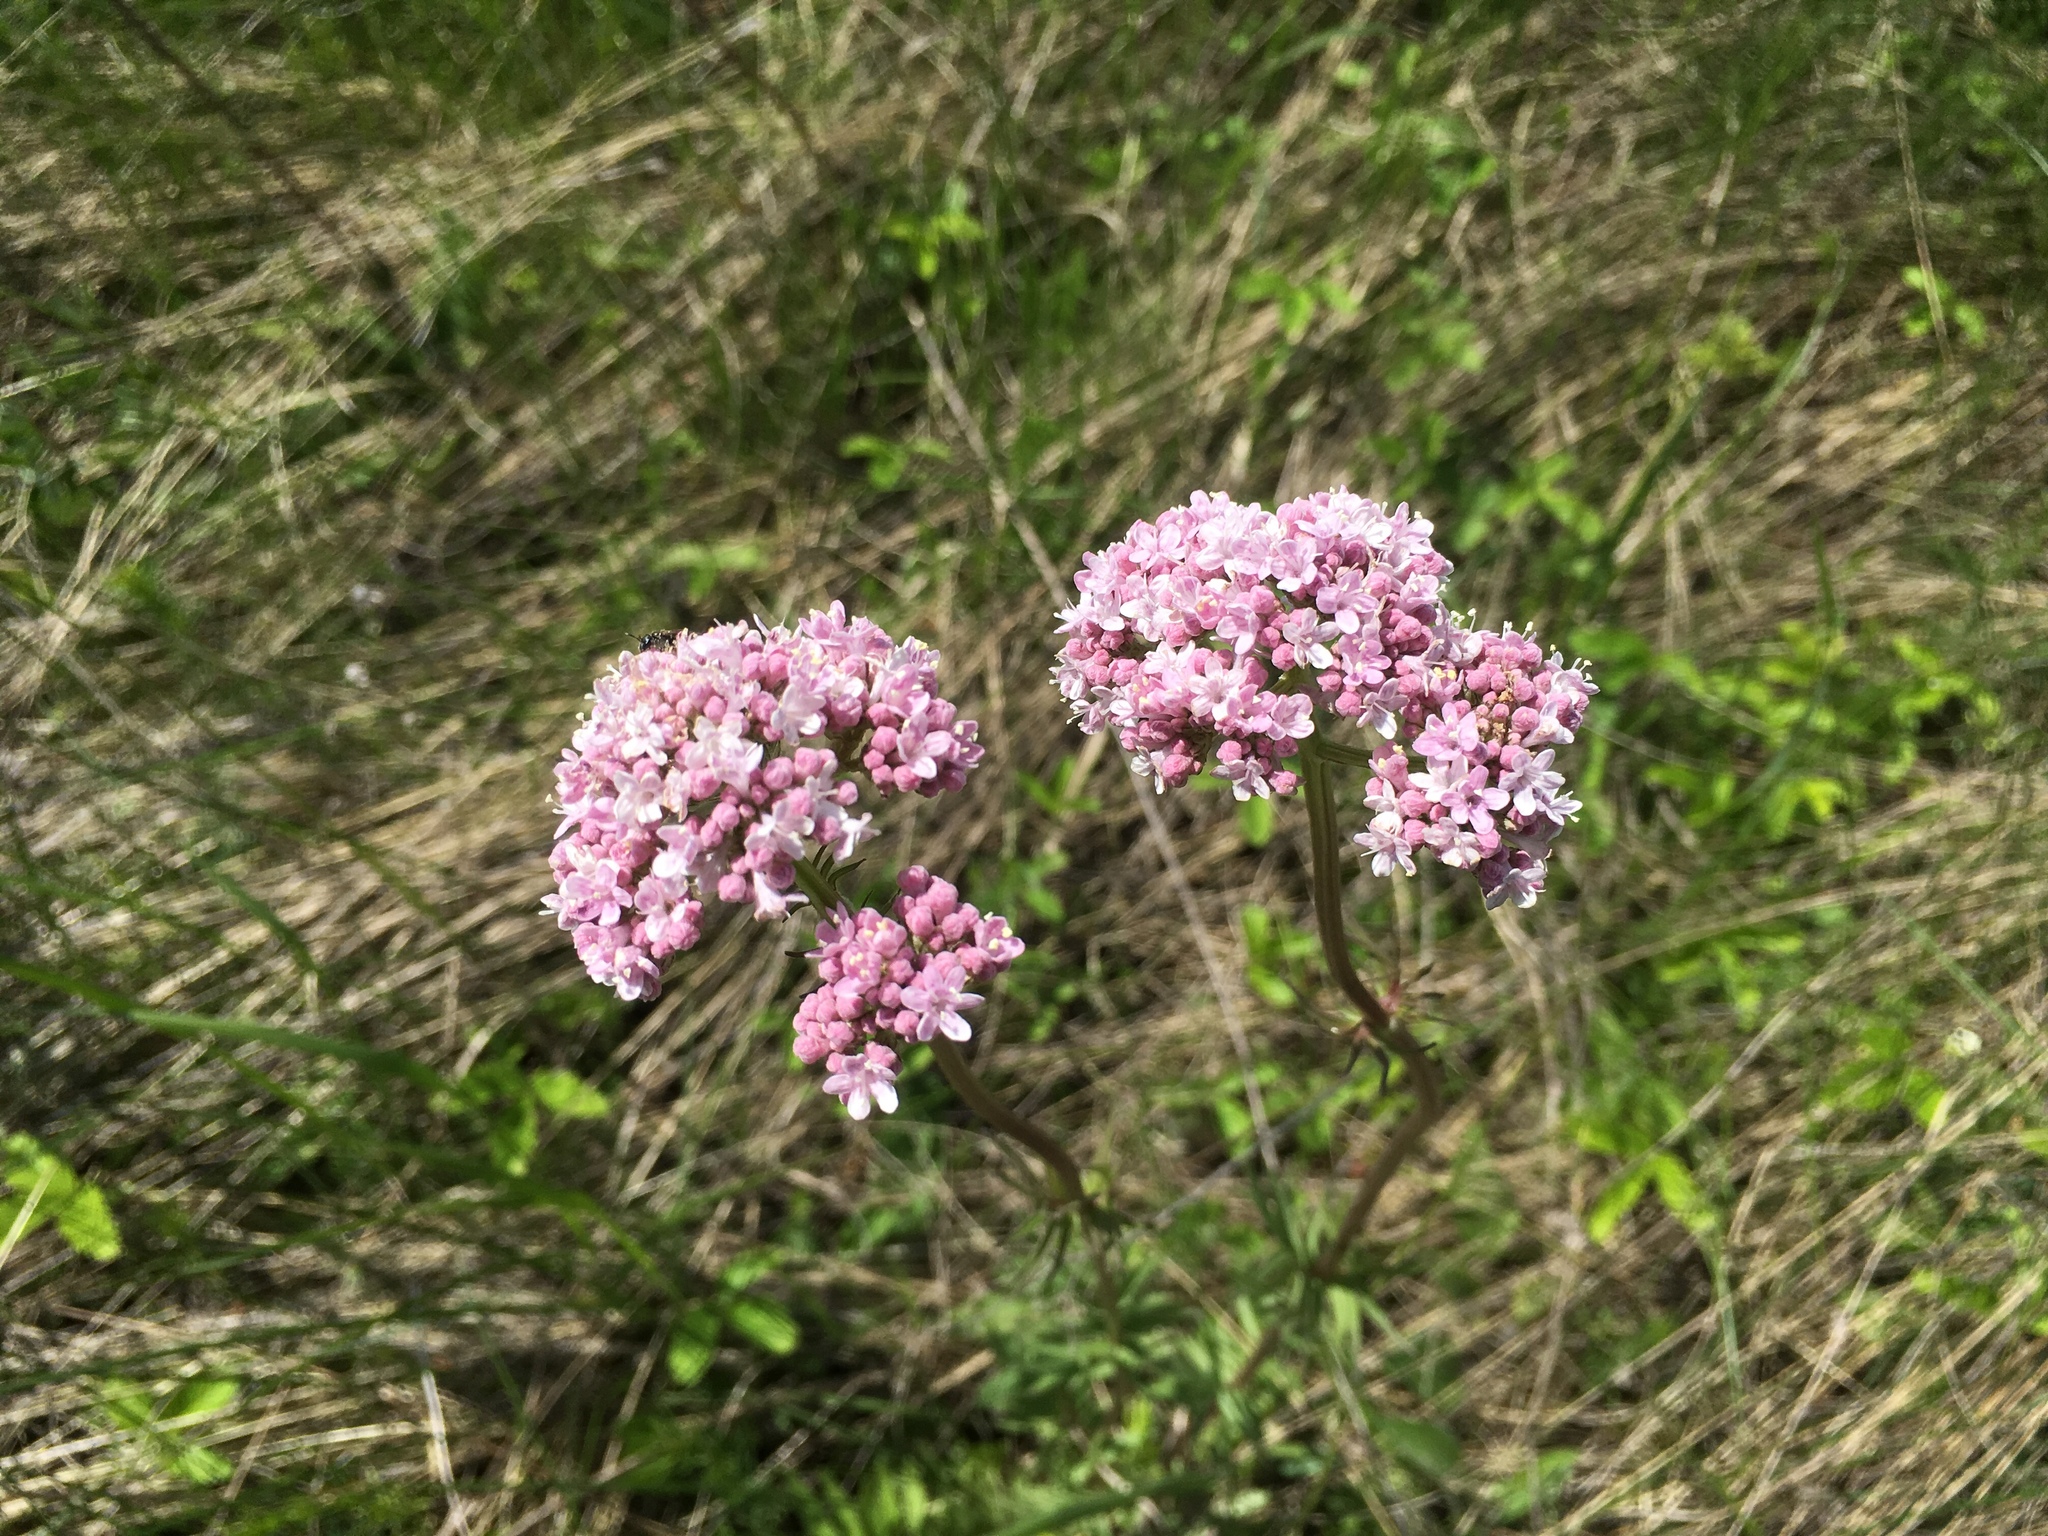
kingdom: Plantae
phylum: Tracheophyta
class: Magnoliopsida
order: Dipsacales
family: Caprifoliaceae
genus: Valeriana
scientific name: Valeriana officinalis
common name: Common valerian
